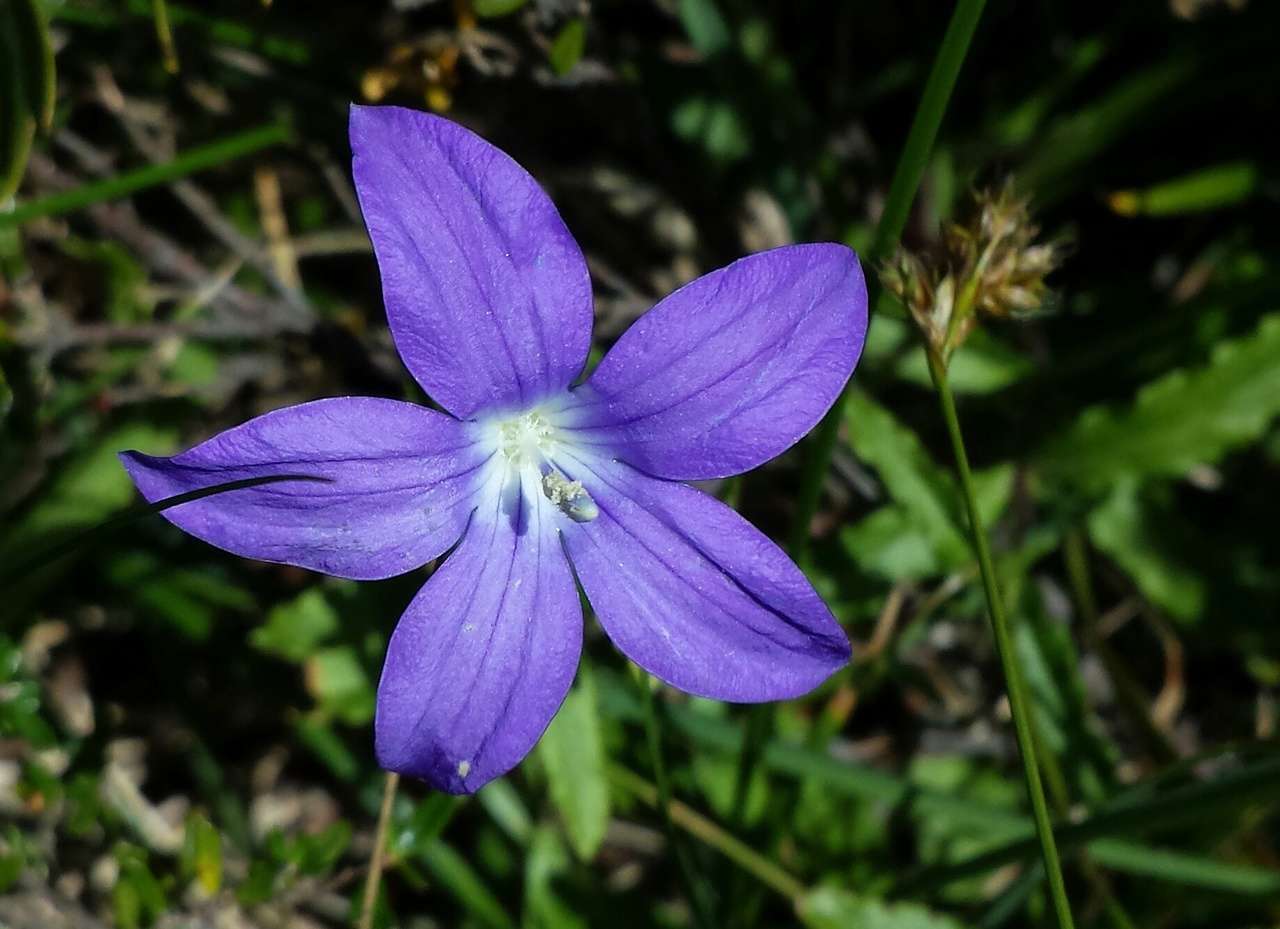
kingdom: Plantae
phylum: Tracheophyta
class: Magnoliopsida
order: Asterales
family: Campanulaceae
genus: Wahlenbergia
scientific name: Wahlenbergia ceracea
